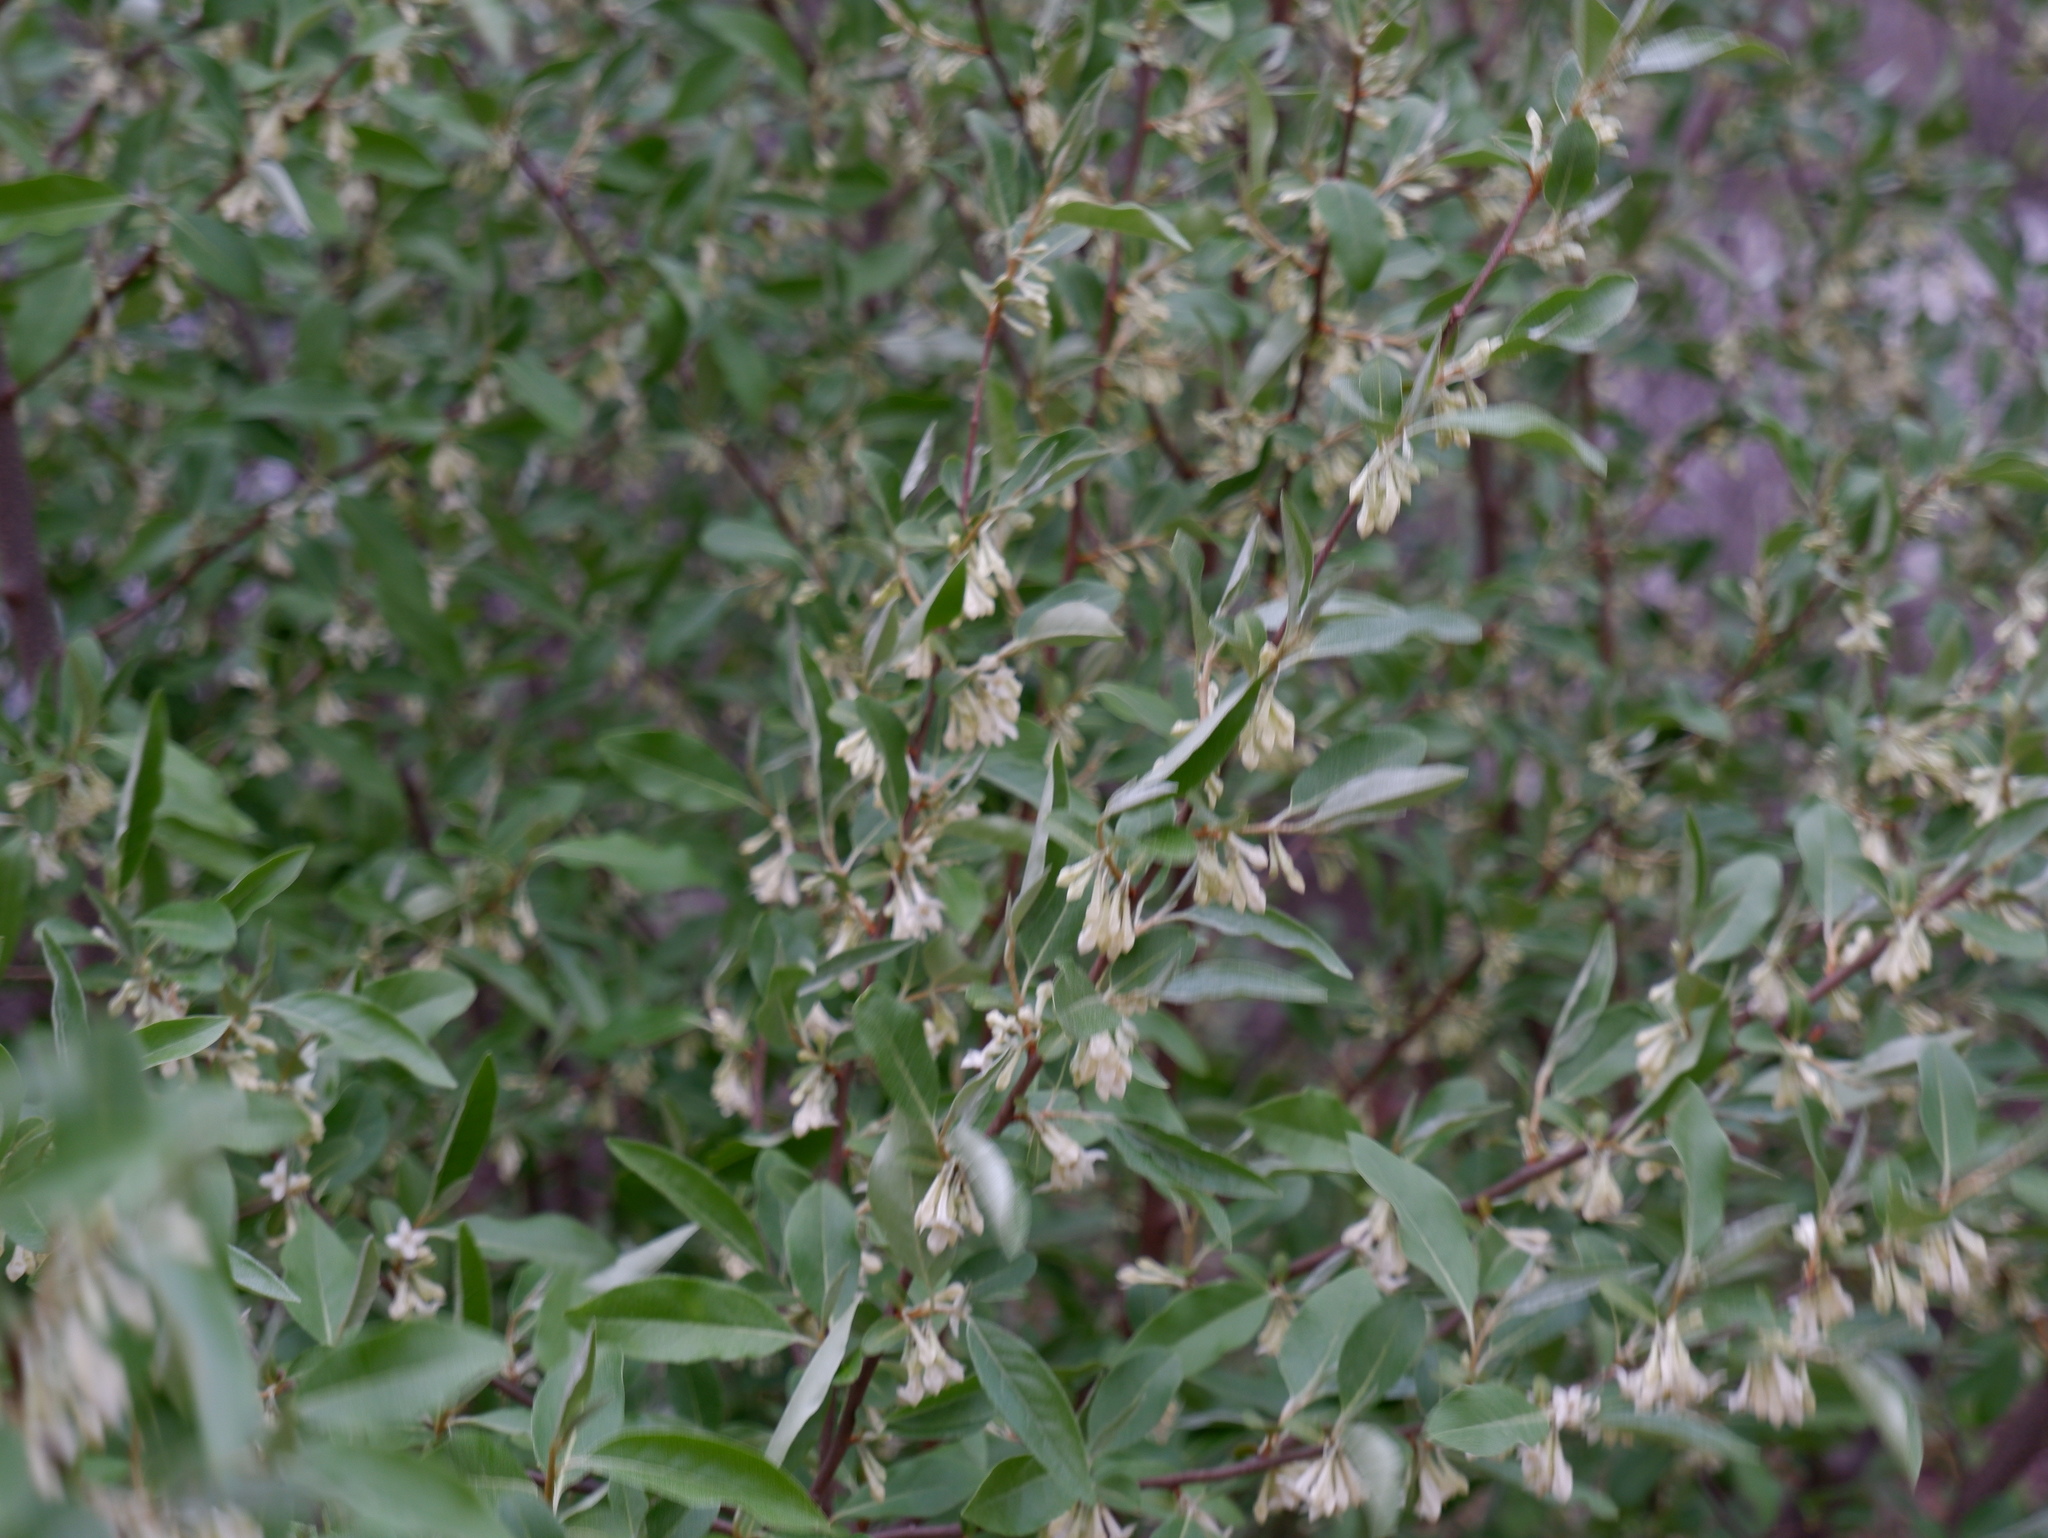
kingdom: Plantae
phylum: Tracheophyta
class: Magnoliopsida
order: Rosales
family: Elaeagnaceae
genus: Elaeagnus
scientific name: Elaeagnus umbellata
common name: Autumn olive
